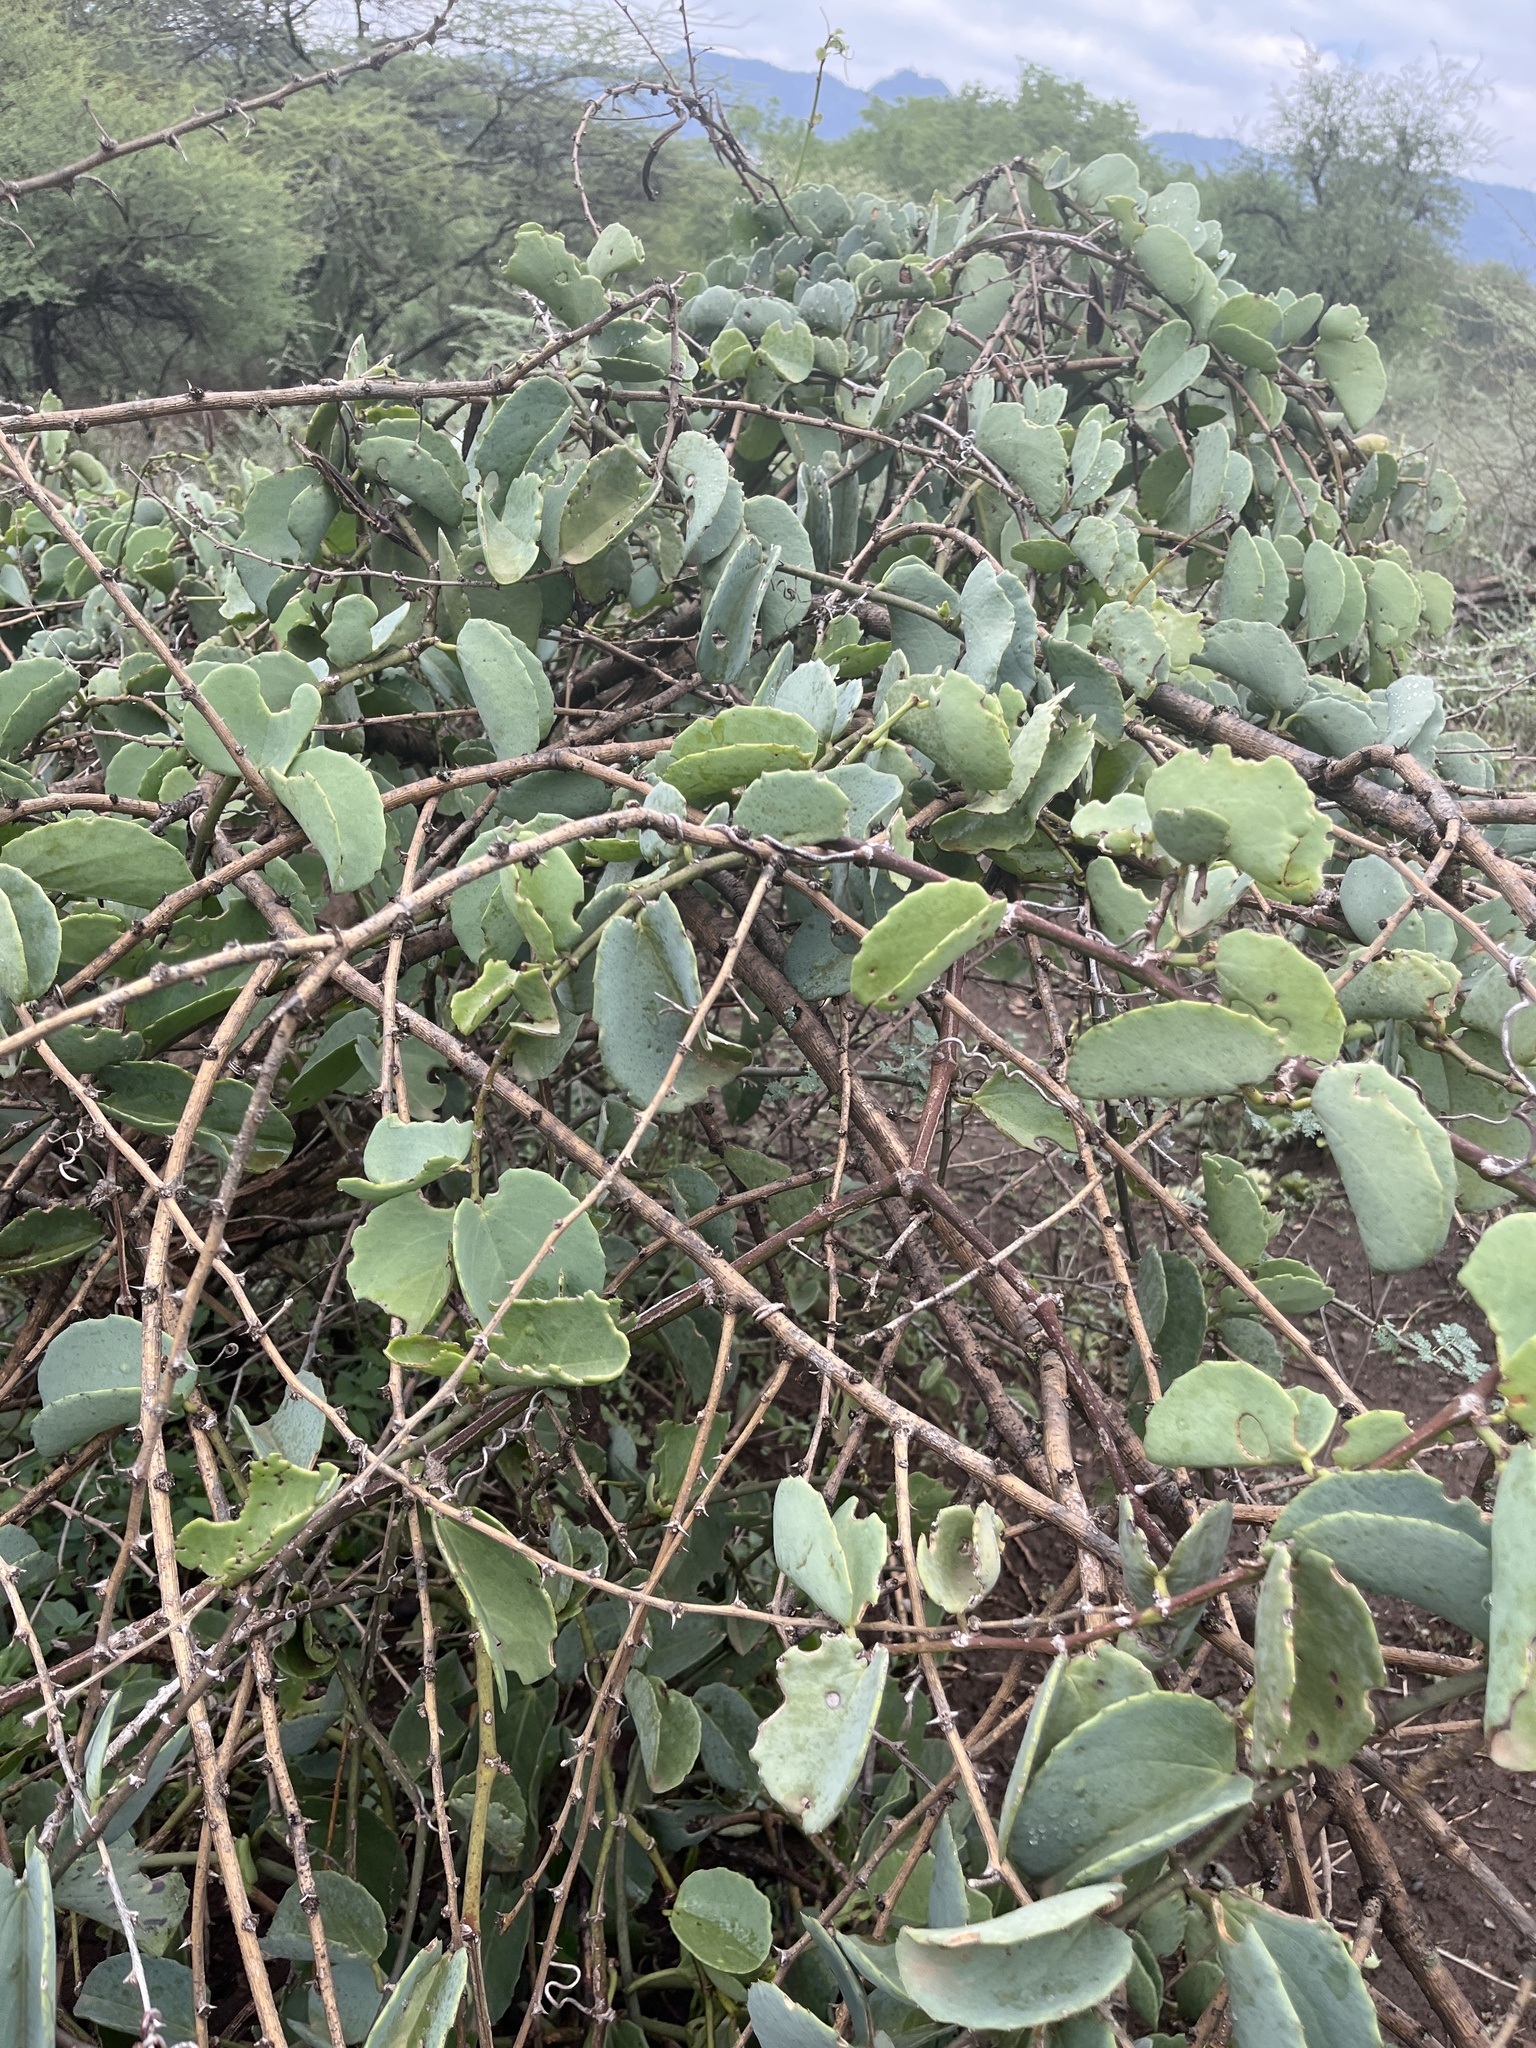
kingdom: Plantae
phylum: Tracheophyta
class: Magnoliopsida
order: Vitales
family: Vitaceae
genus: Cissus
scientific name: Cissus rotundifolia
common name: Arabian wax cissus
